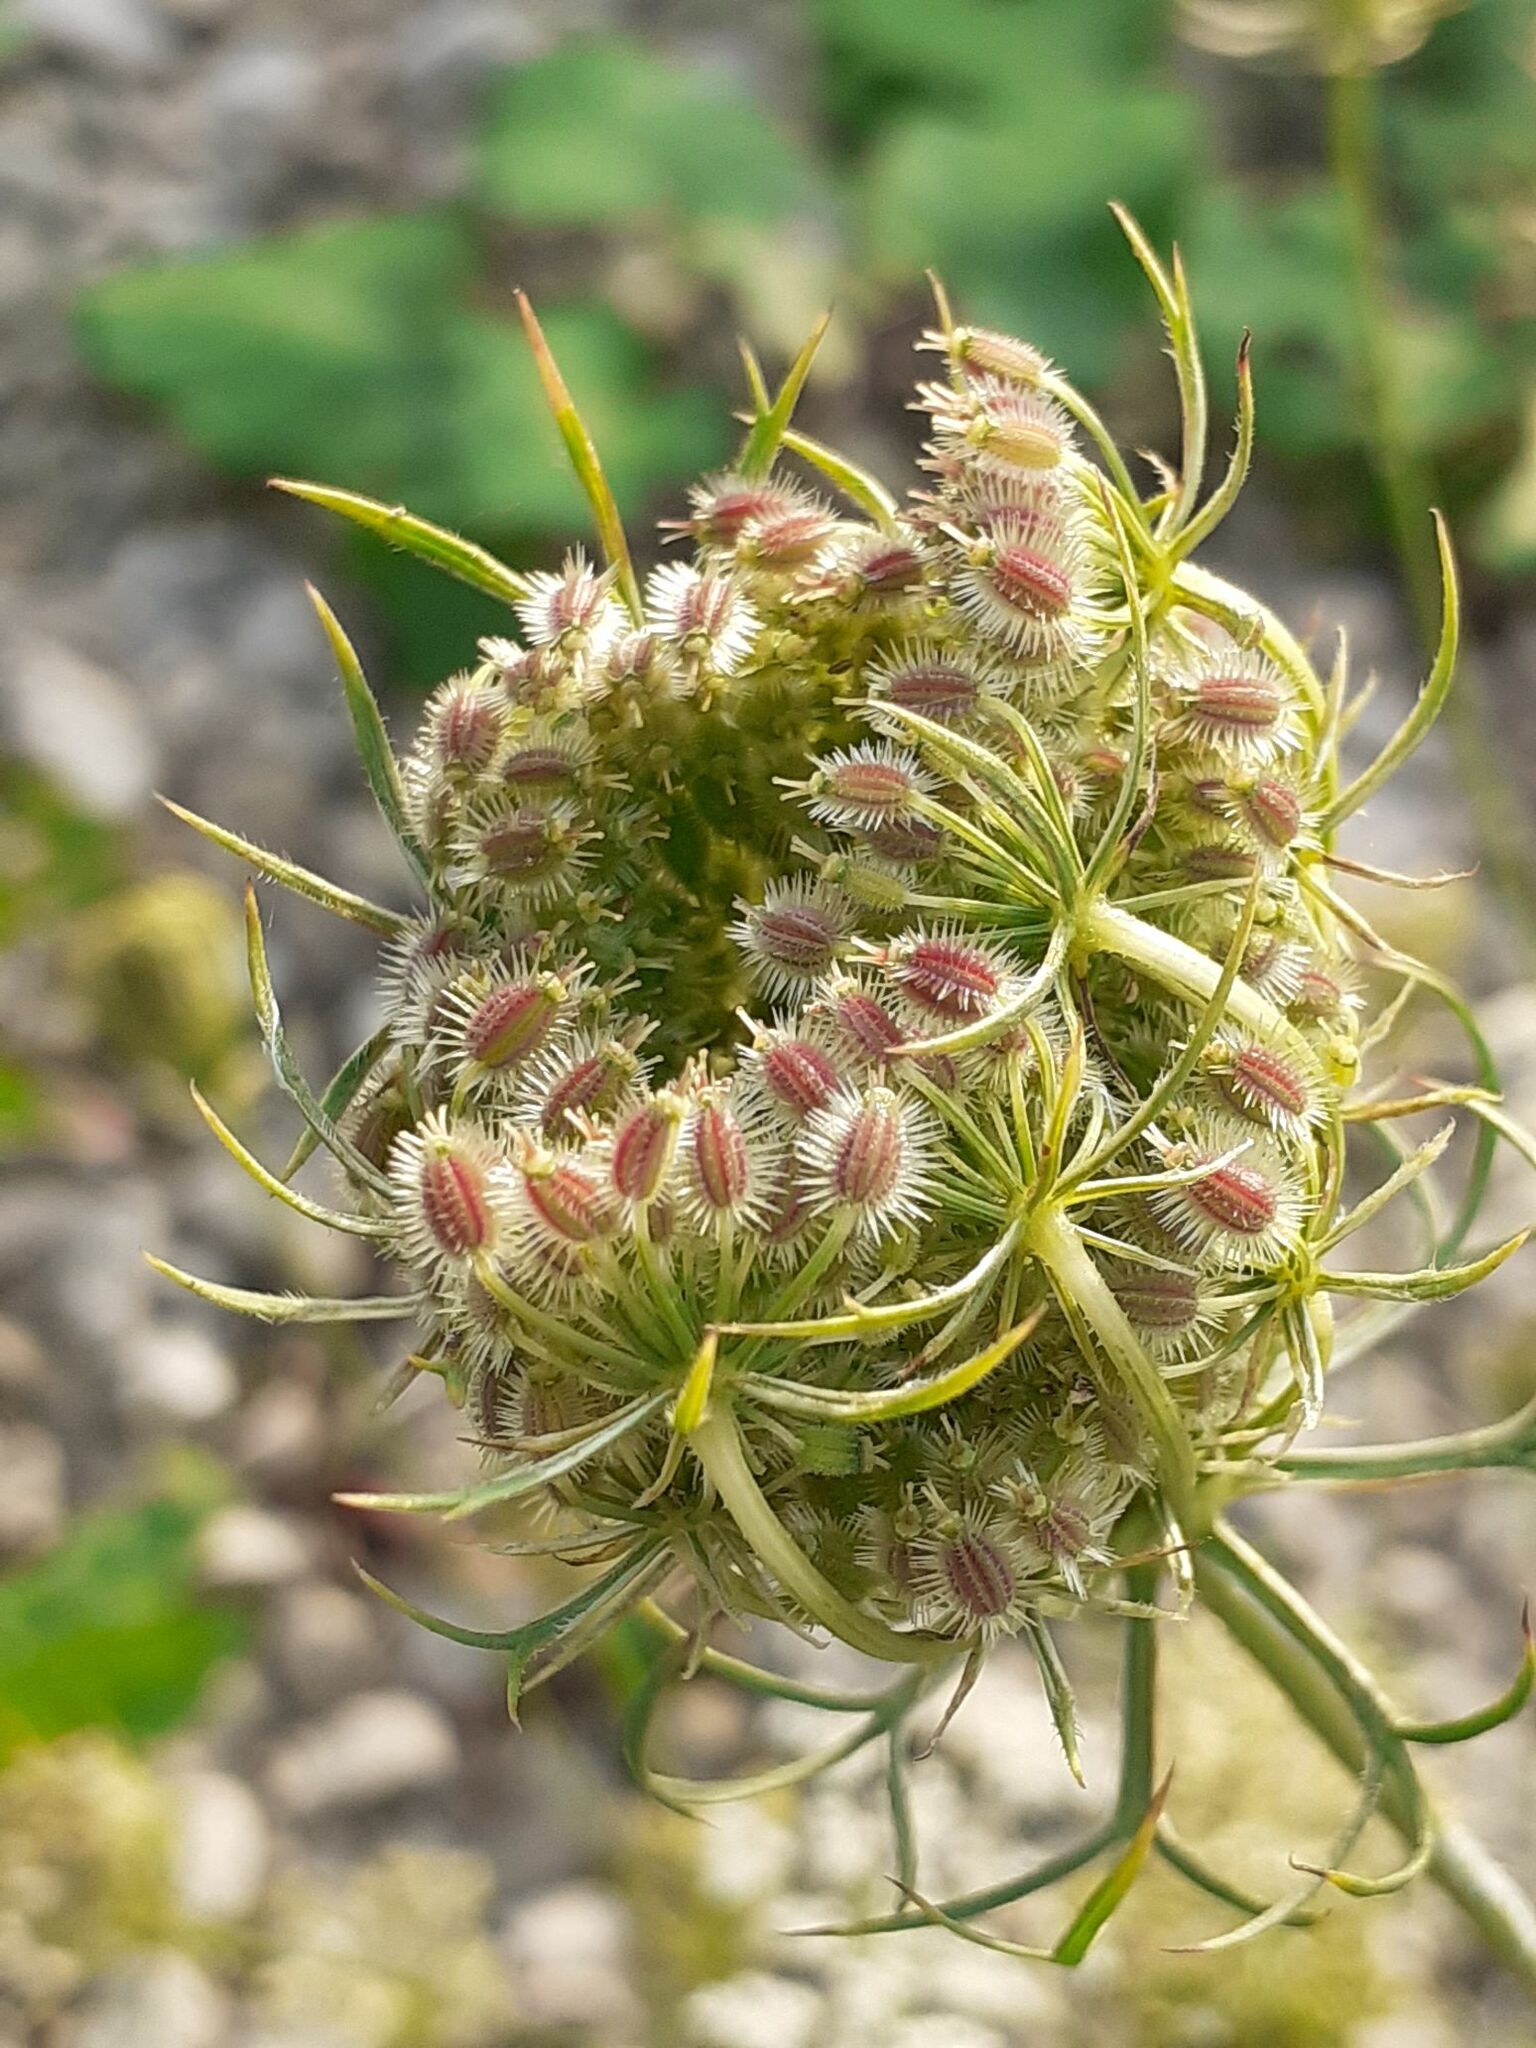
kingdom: Plantae
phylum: Tracheophyta
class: Magnoliopsida
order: Apiales
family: Apiaceae
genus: Daucus
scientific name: Daucus carota
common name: Wild carrot
